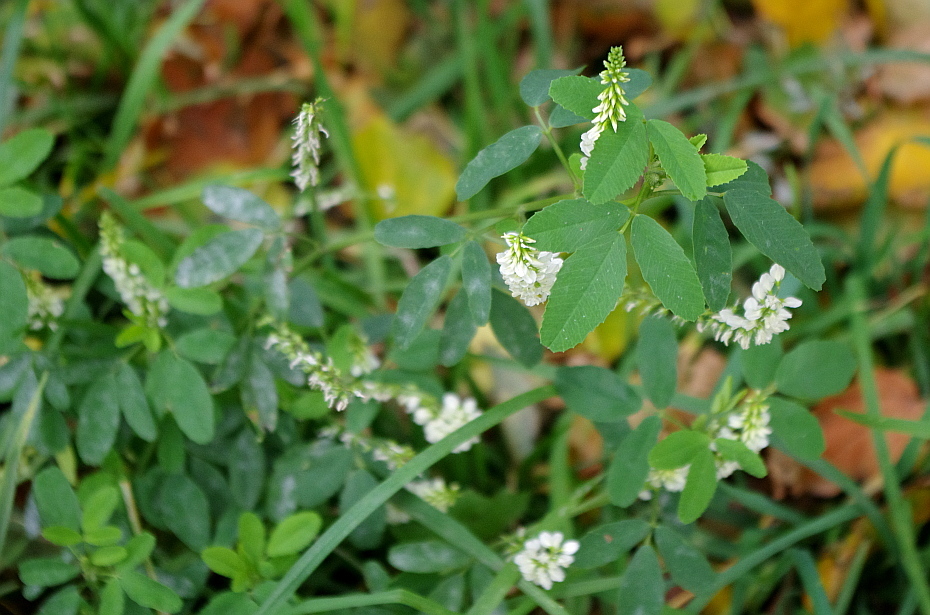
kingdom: Plantae
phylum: Tracheophyta
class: Magnoliopsida
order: Fabales
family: Fabaceae
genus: Melilotus
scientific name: Melilotus albus
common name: White melilot
